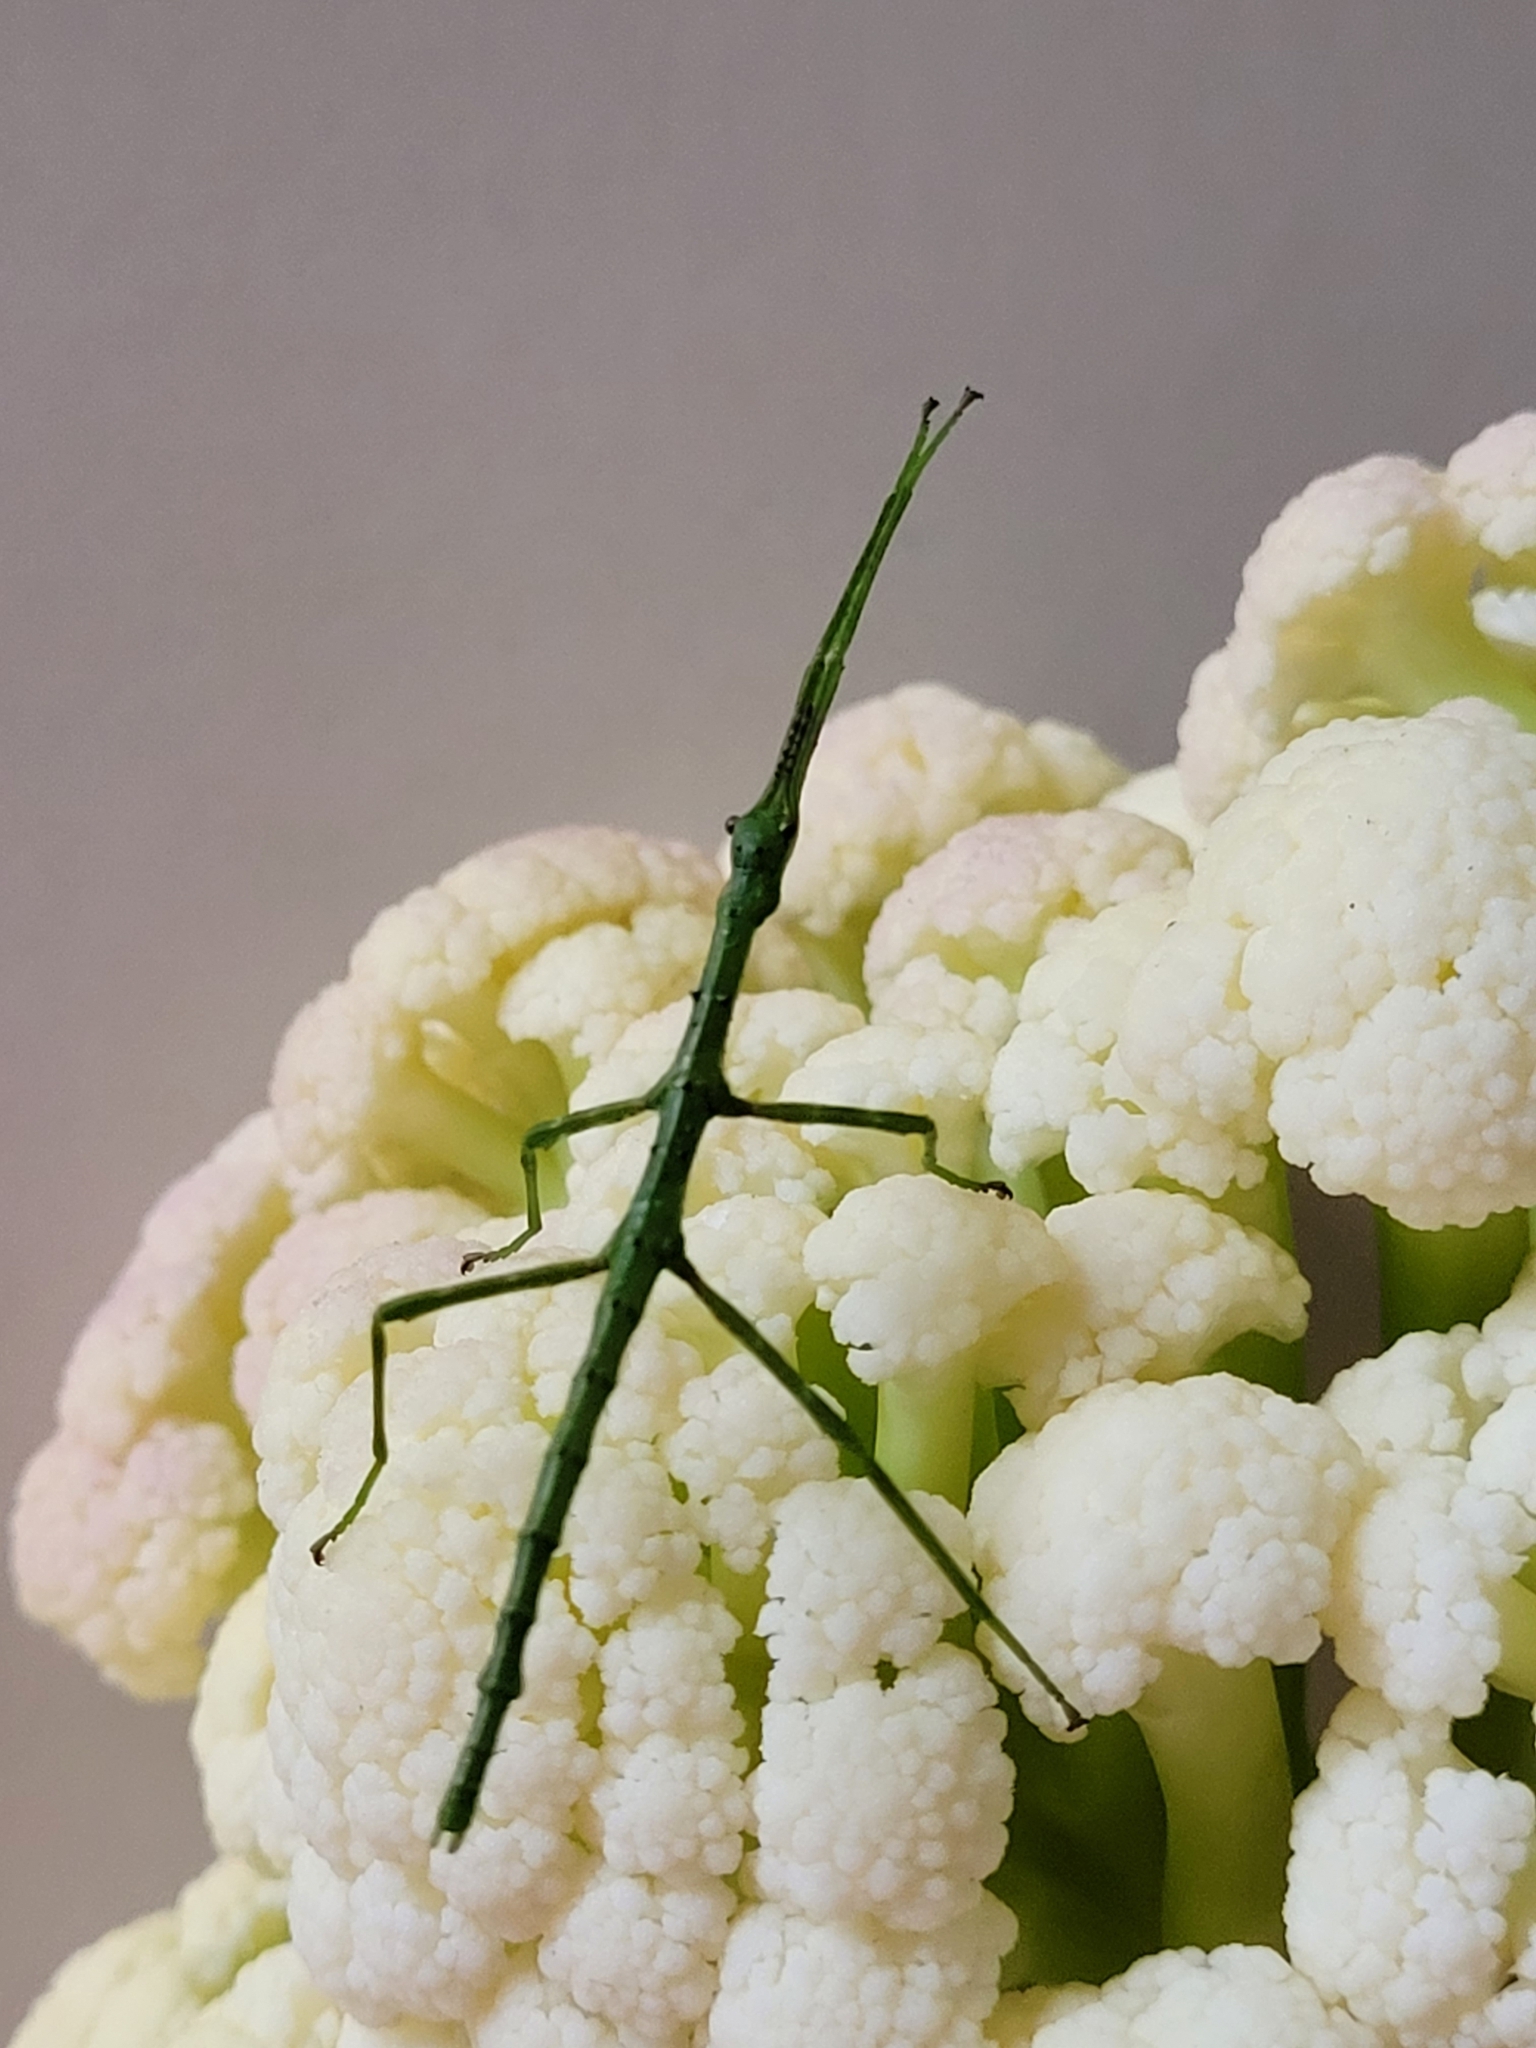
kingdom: Animalia
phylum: Arthropoda
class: Insecta
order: Phasmida
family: Phasmatidae
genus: Acanthoxyla
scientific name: Acanthoxyla prasina
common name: Black-spined stick insect
